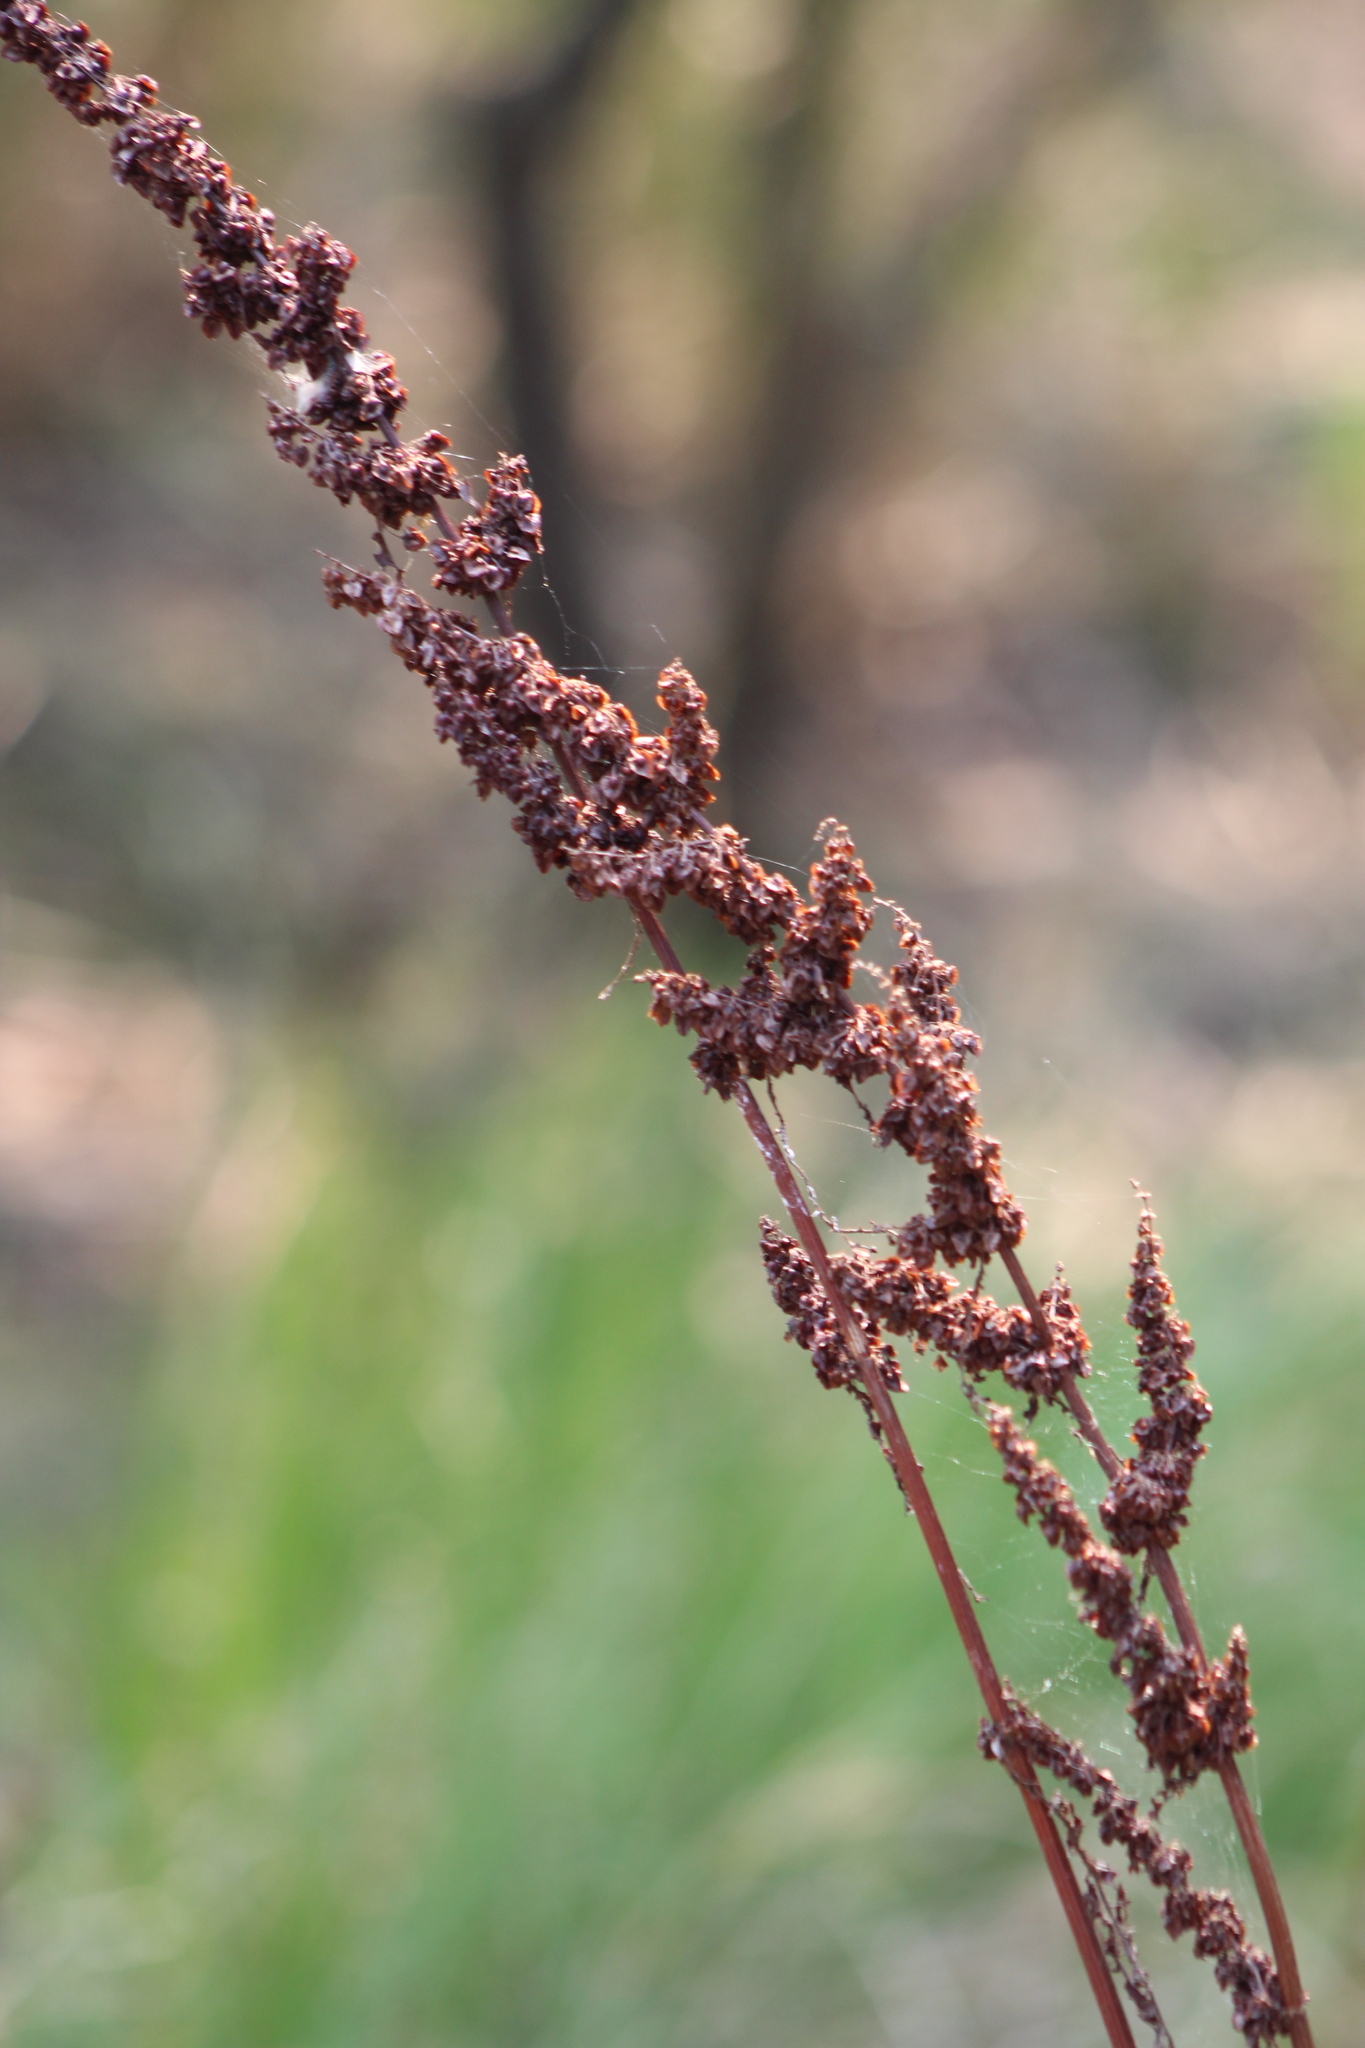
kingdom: Plantae
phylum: Tracheophyta
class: Magnoliopsida
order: Caryophyllales
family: Polygonaceae
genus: Rumex
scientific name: Rumex crispus
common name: Curled dock
